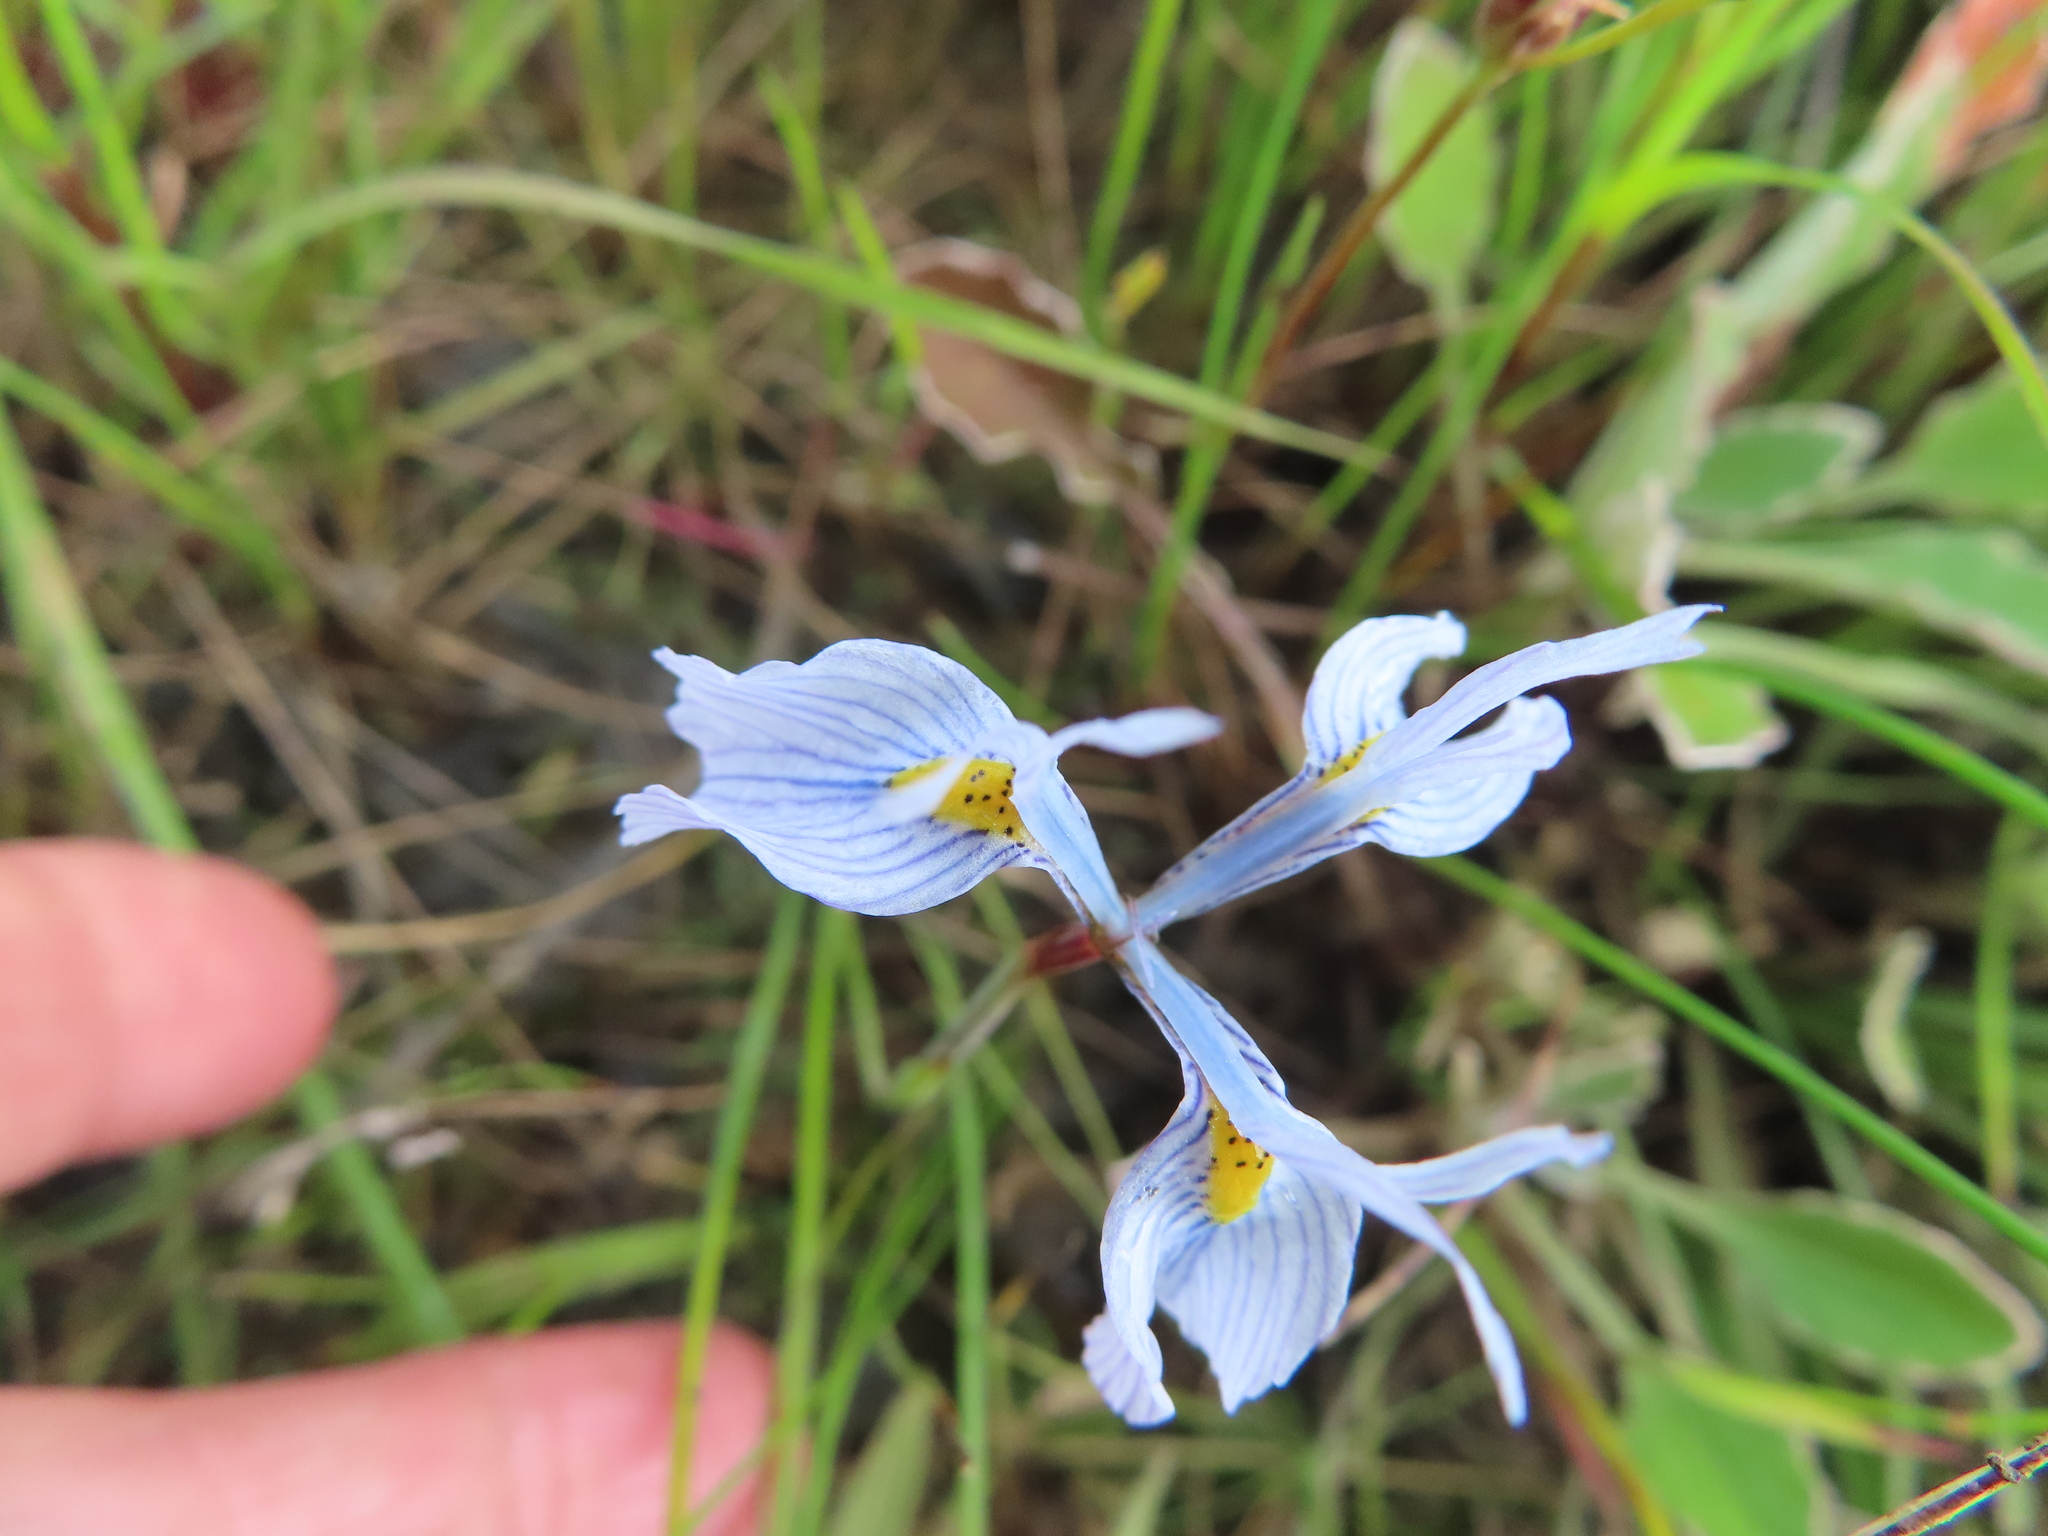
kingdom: Plantae
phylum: Tracheophyta
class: Liliopsida
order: Asparagales
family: Iridaceae
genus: Moraea
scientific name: Moraea ogamana
